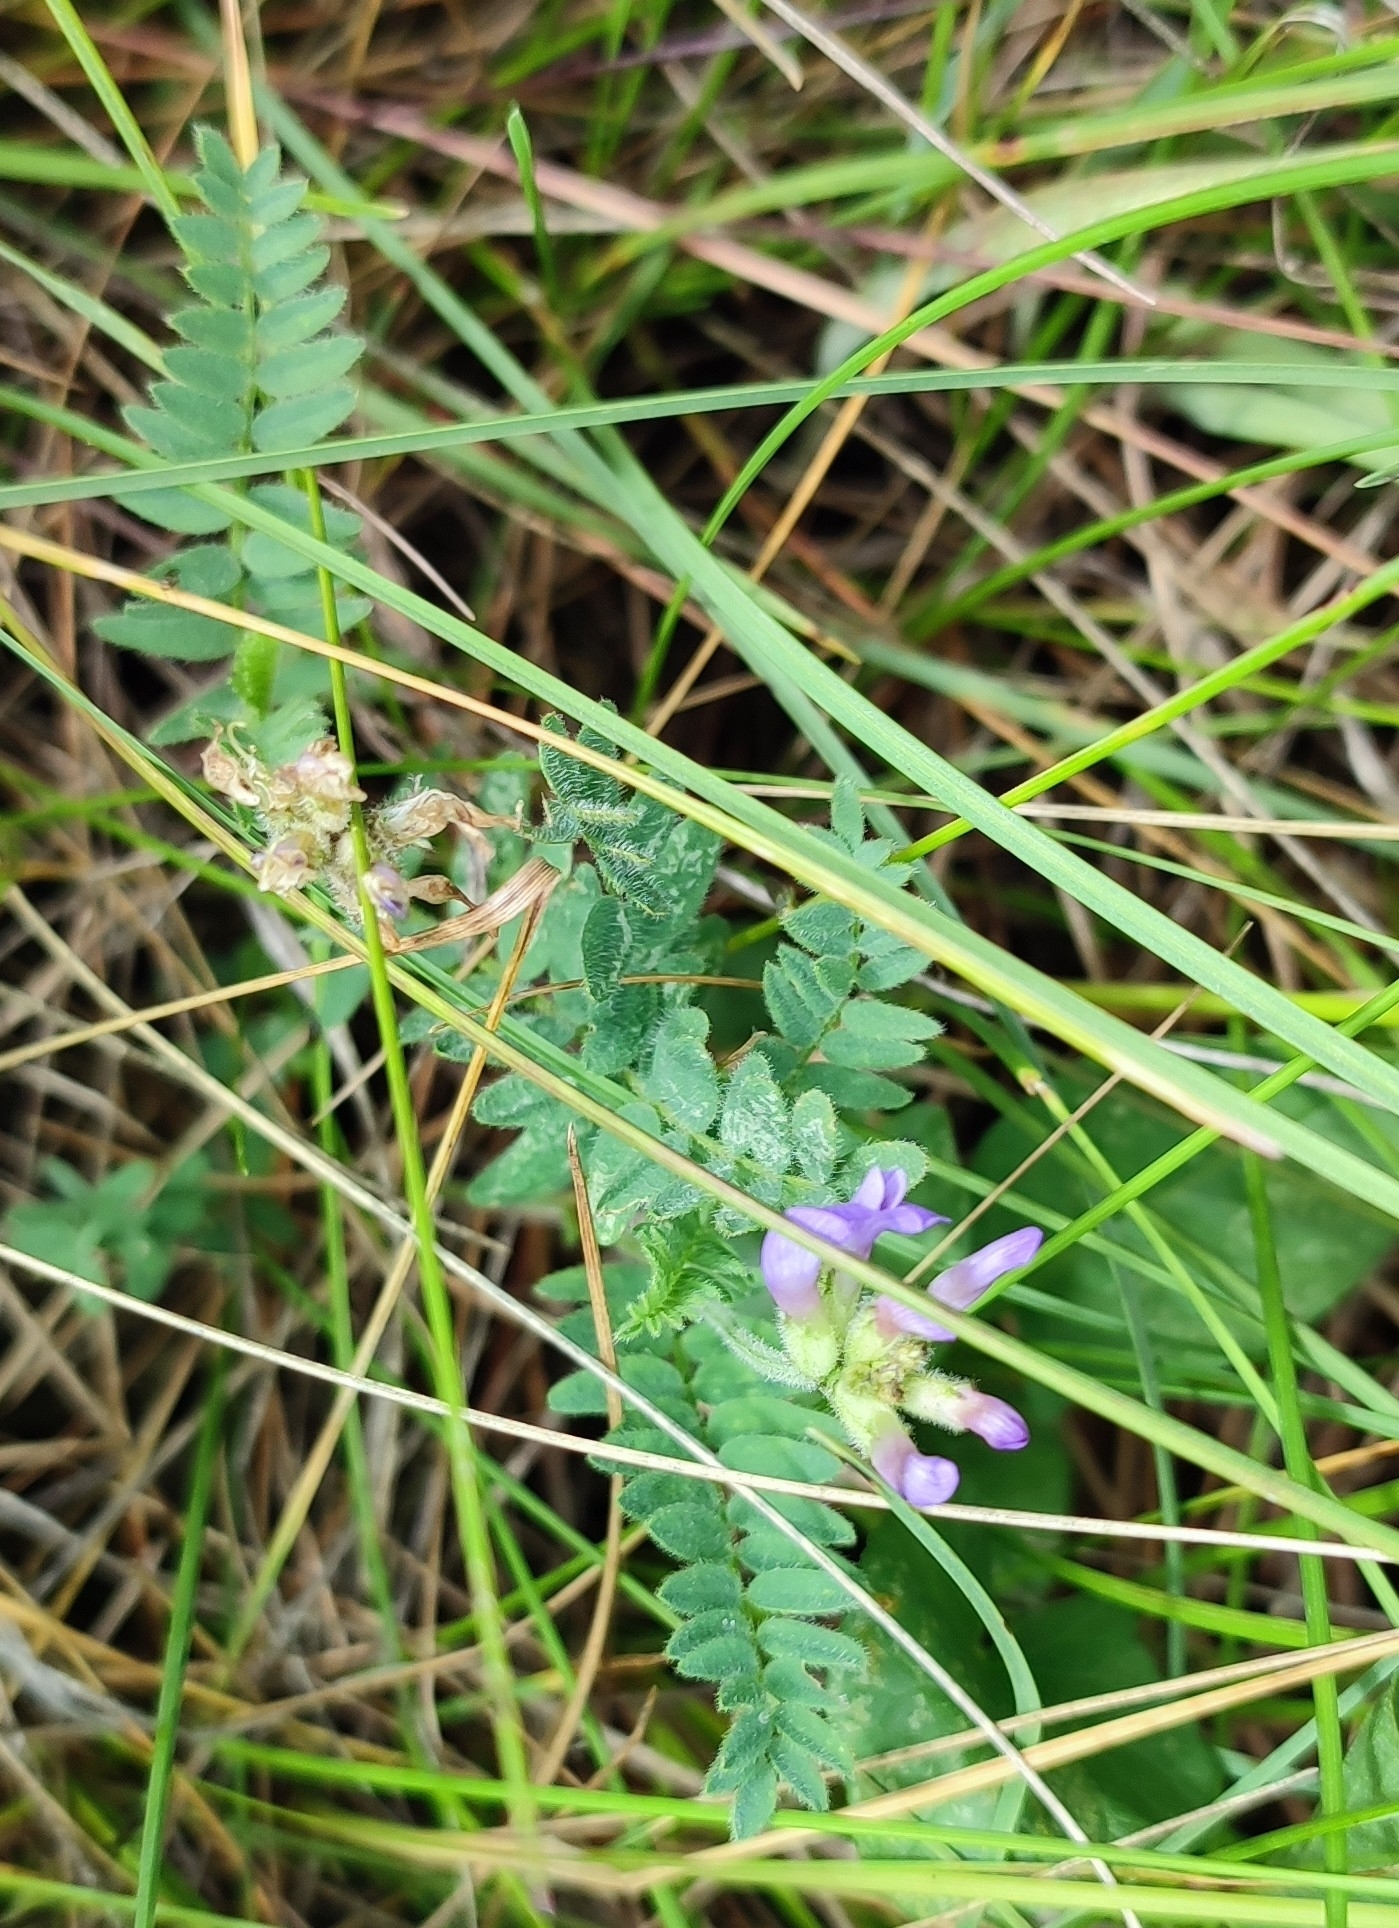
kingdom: Plantae
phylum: Tracheophyta
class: Magnoliopsida
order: Fabales
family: Fabaceae
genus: Astragalus
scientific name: Astragalus danicus
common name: Purple milk-vetch
